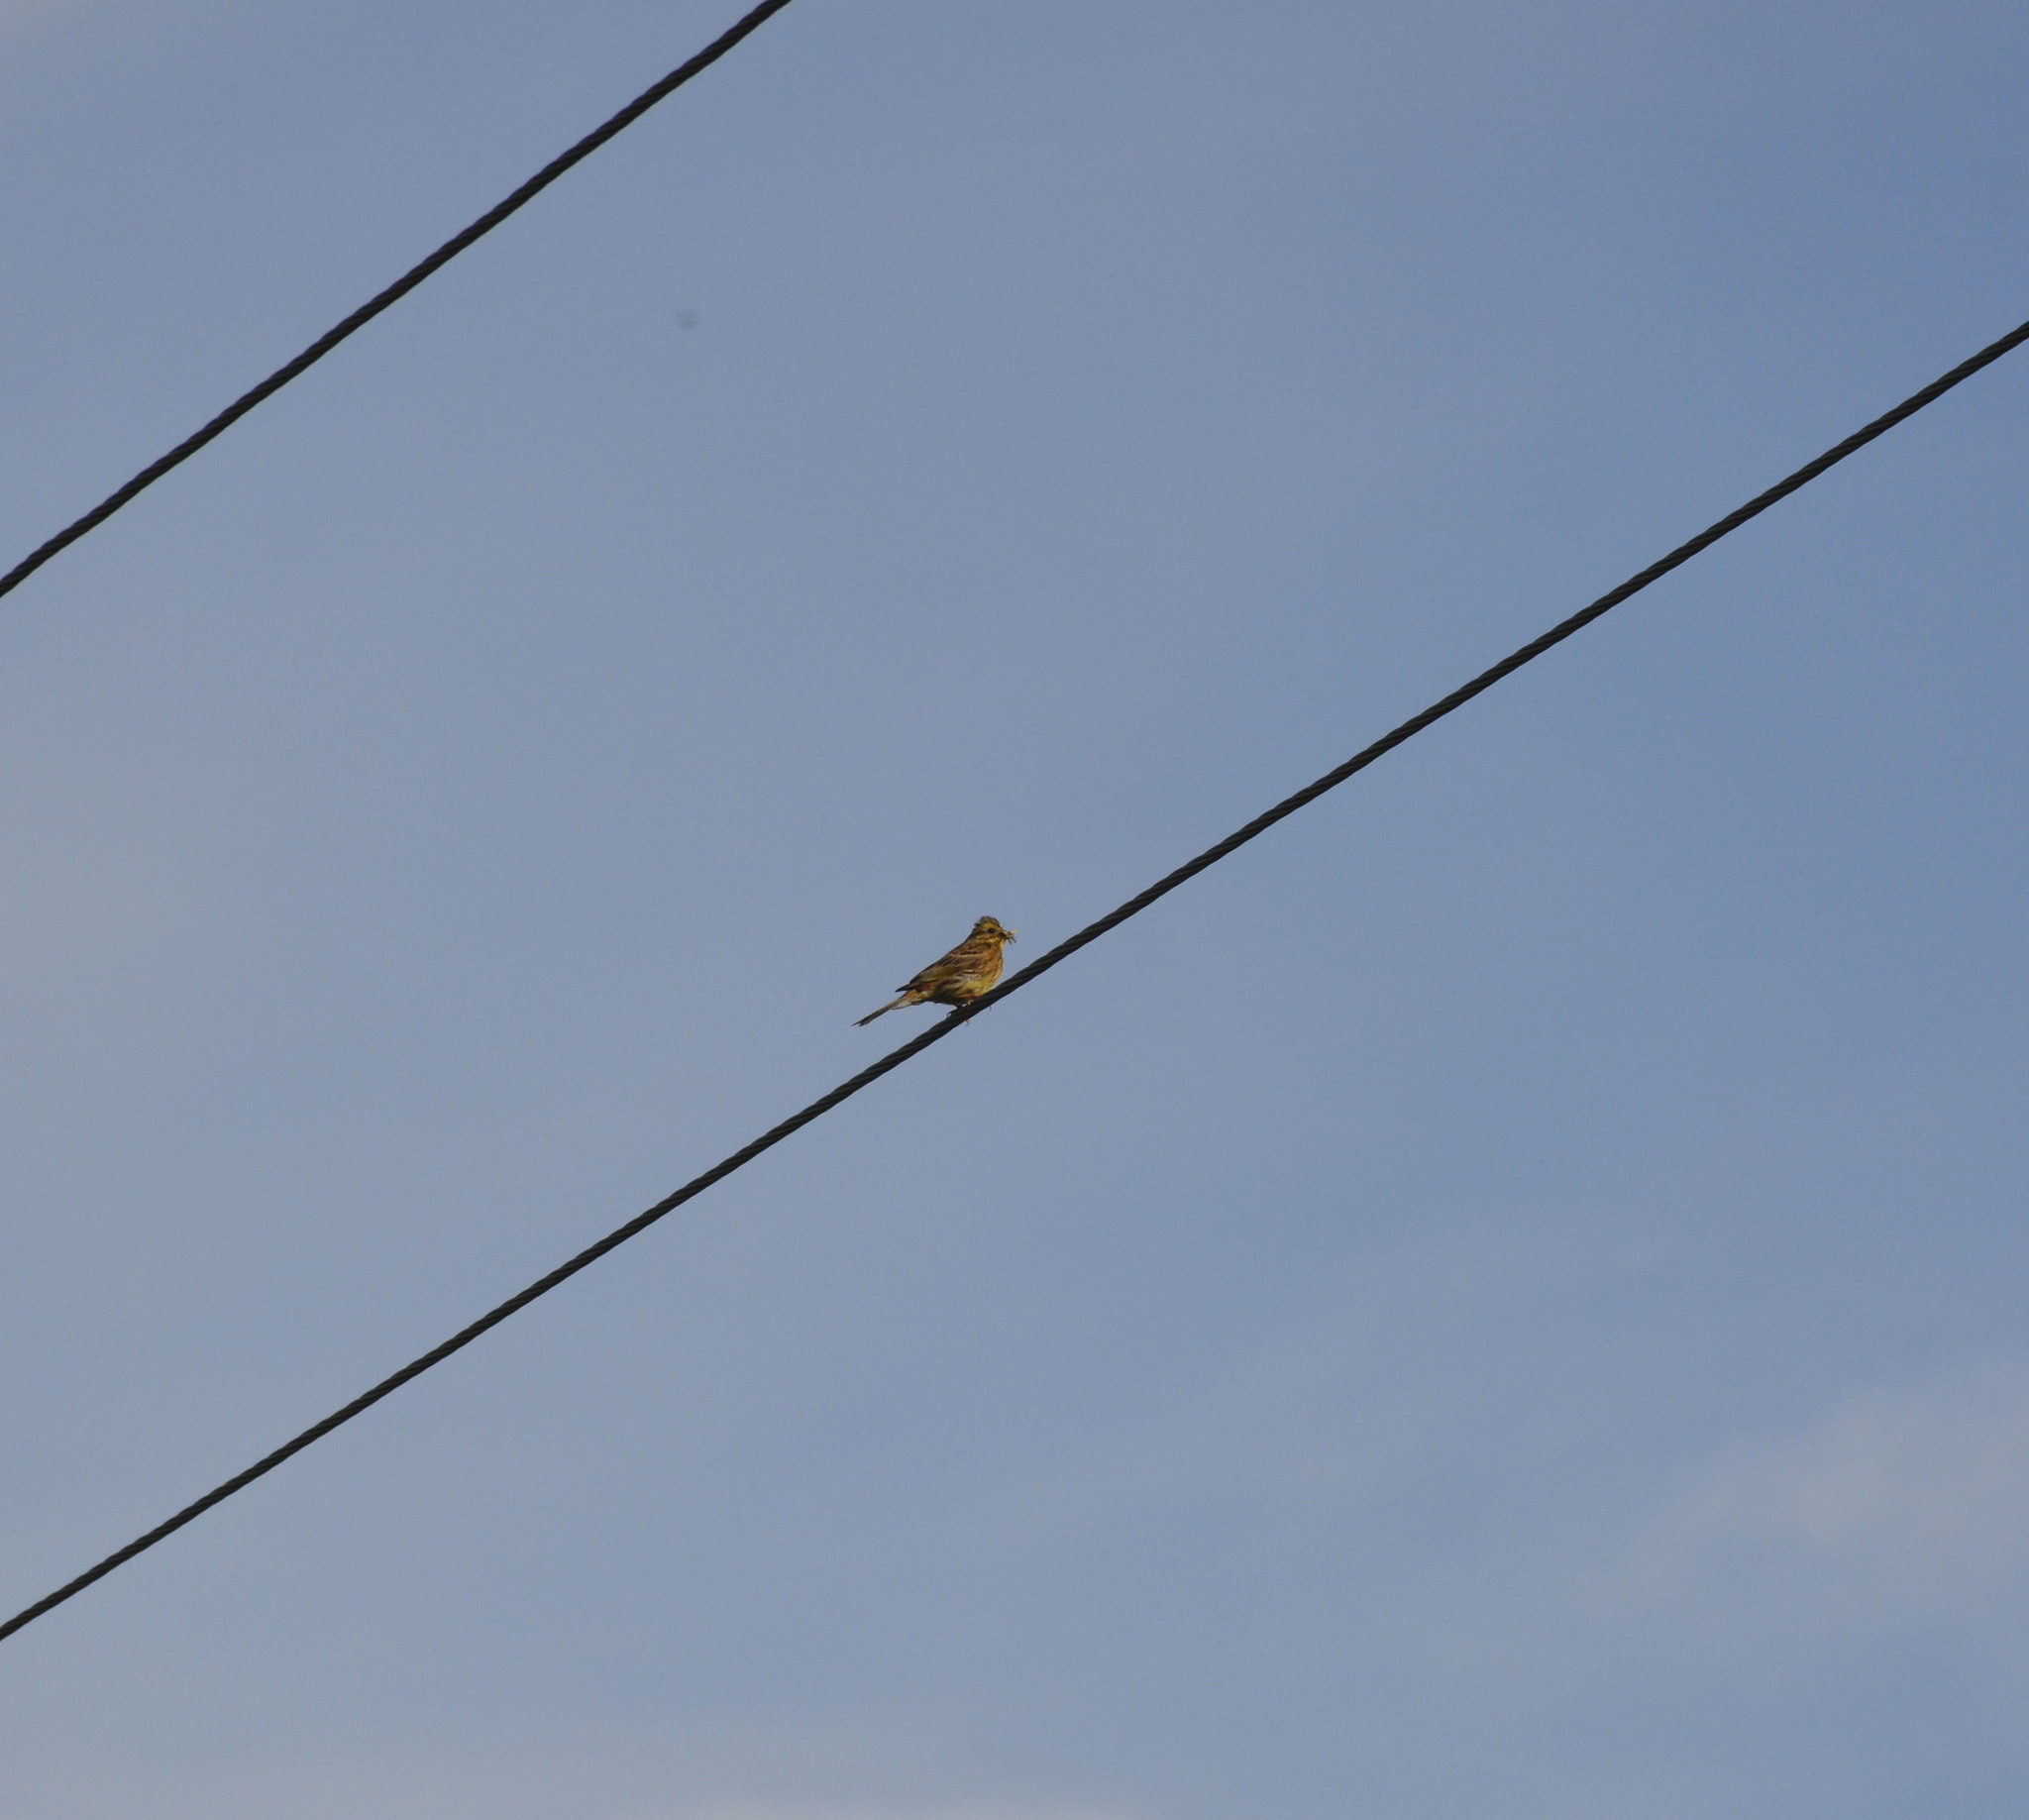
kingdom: Animalia
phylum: Chordata
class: Aves
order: Passeriformes
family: Emberizidae
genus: Emberiza
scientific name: Emberiza citrinella
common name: Yellowhammer
